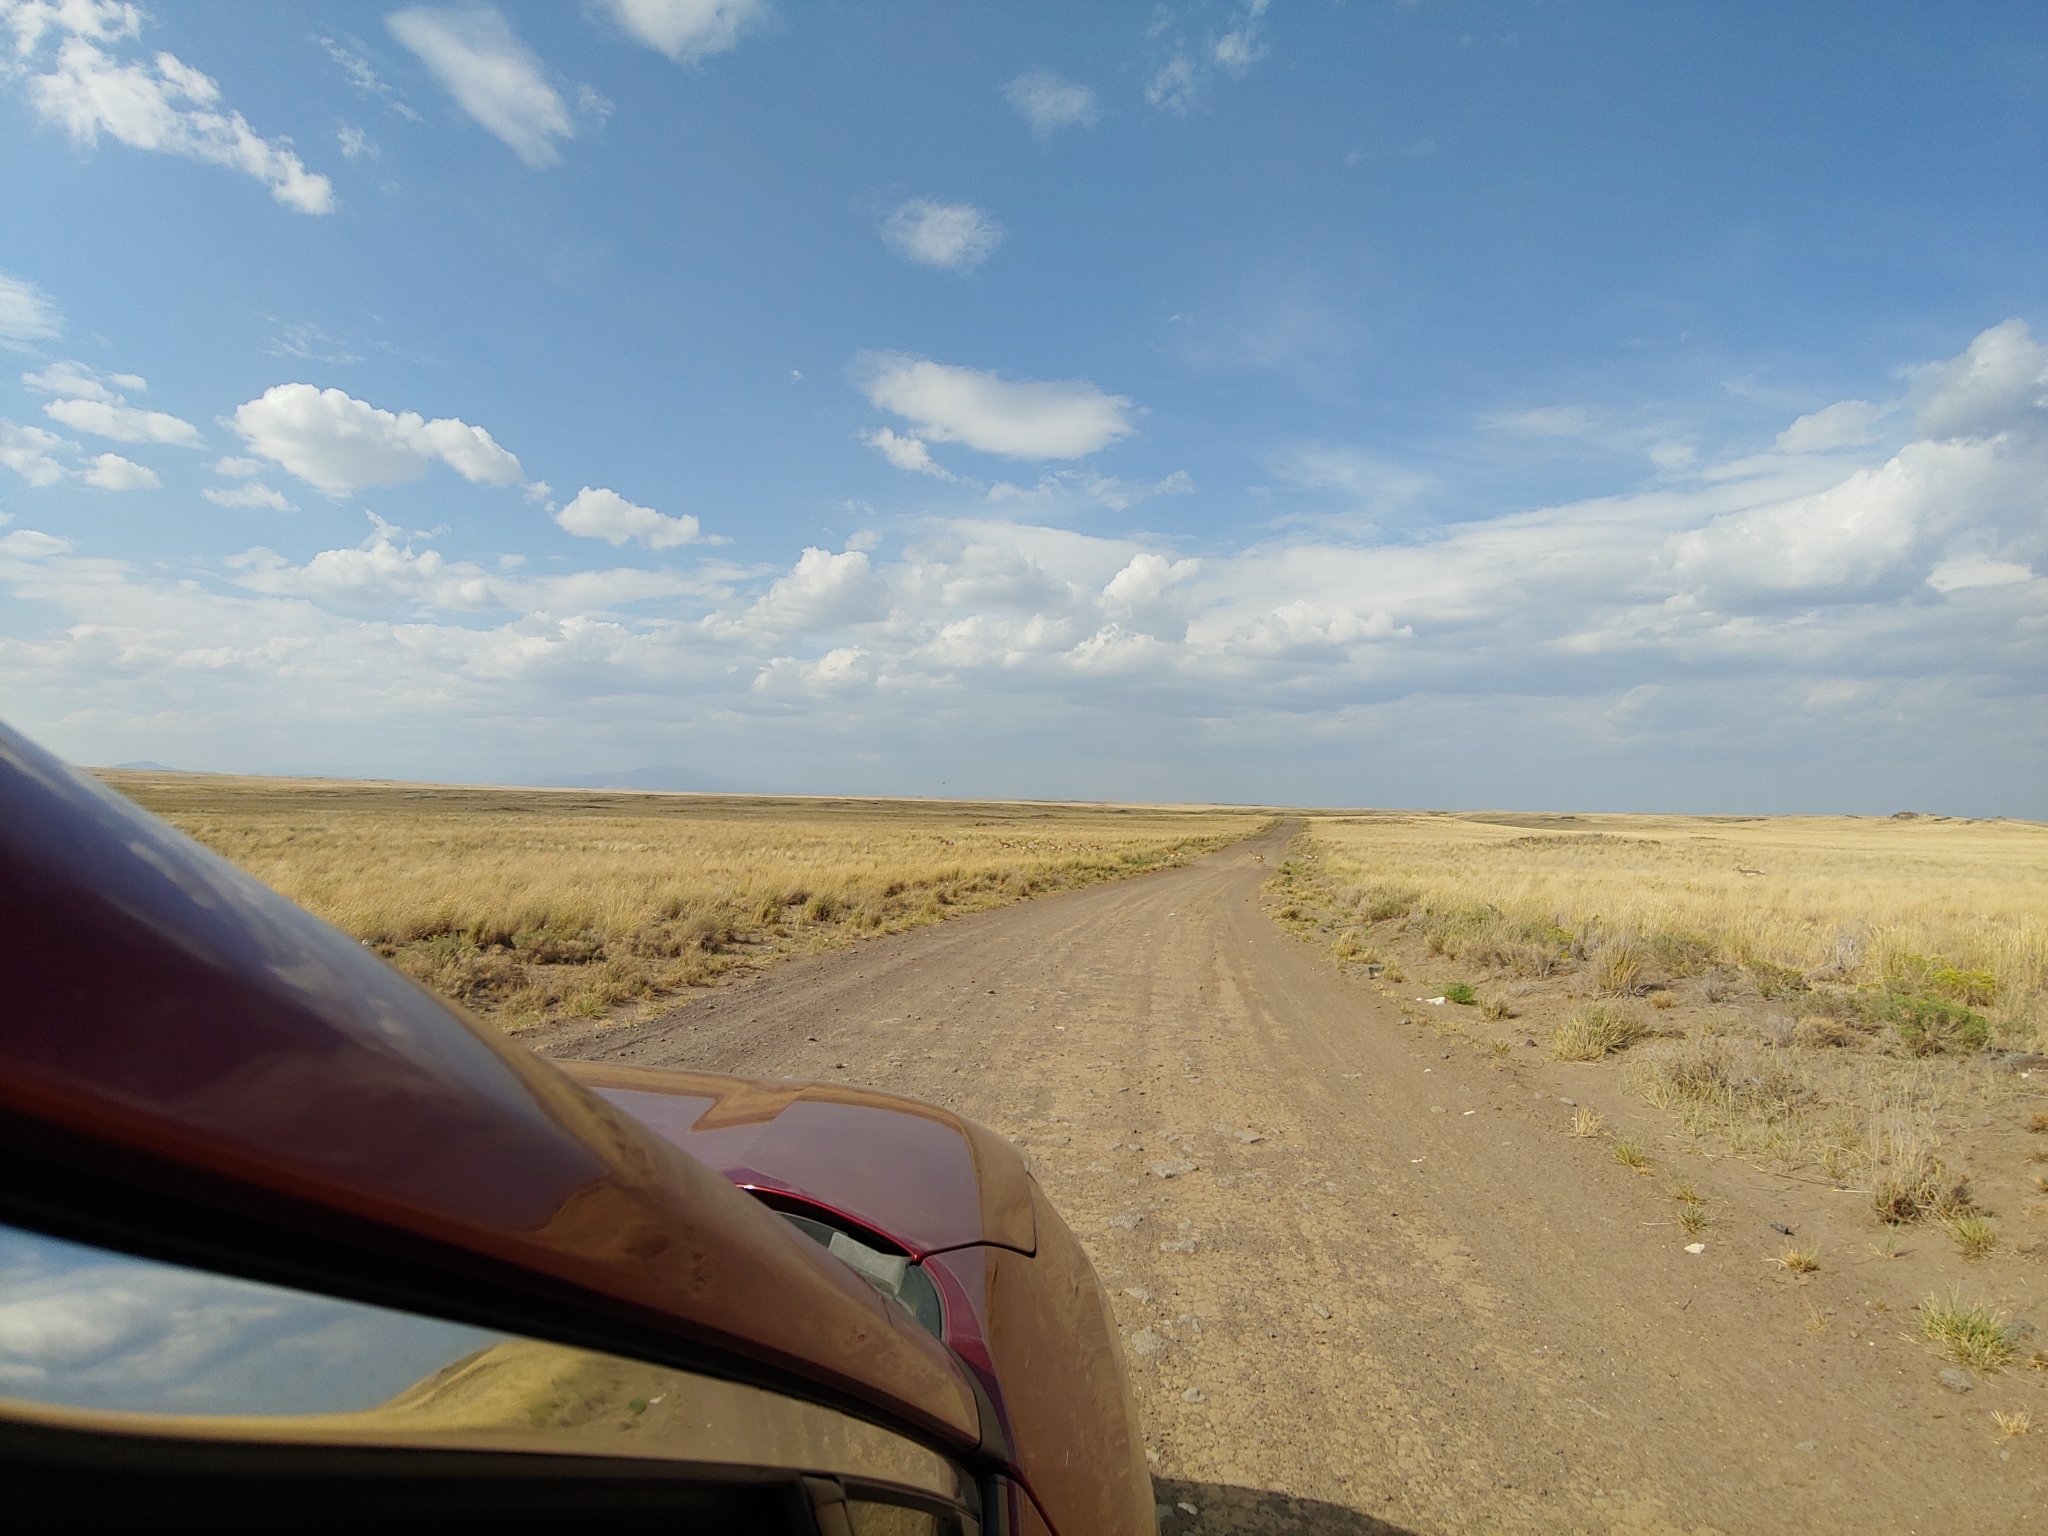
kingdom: Animalia
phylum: Chordata
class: Mammalia
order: Artiodactyla
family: Antilocapridae
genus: Antilocapra
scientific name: Antilocapra americana
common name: Pronghorn
